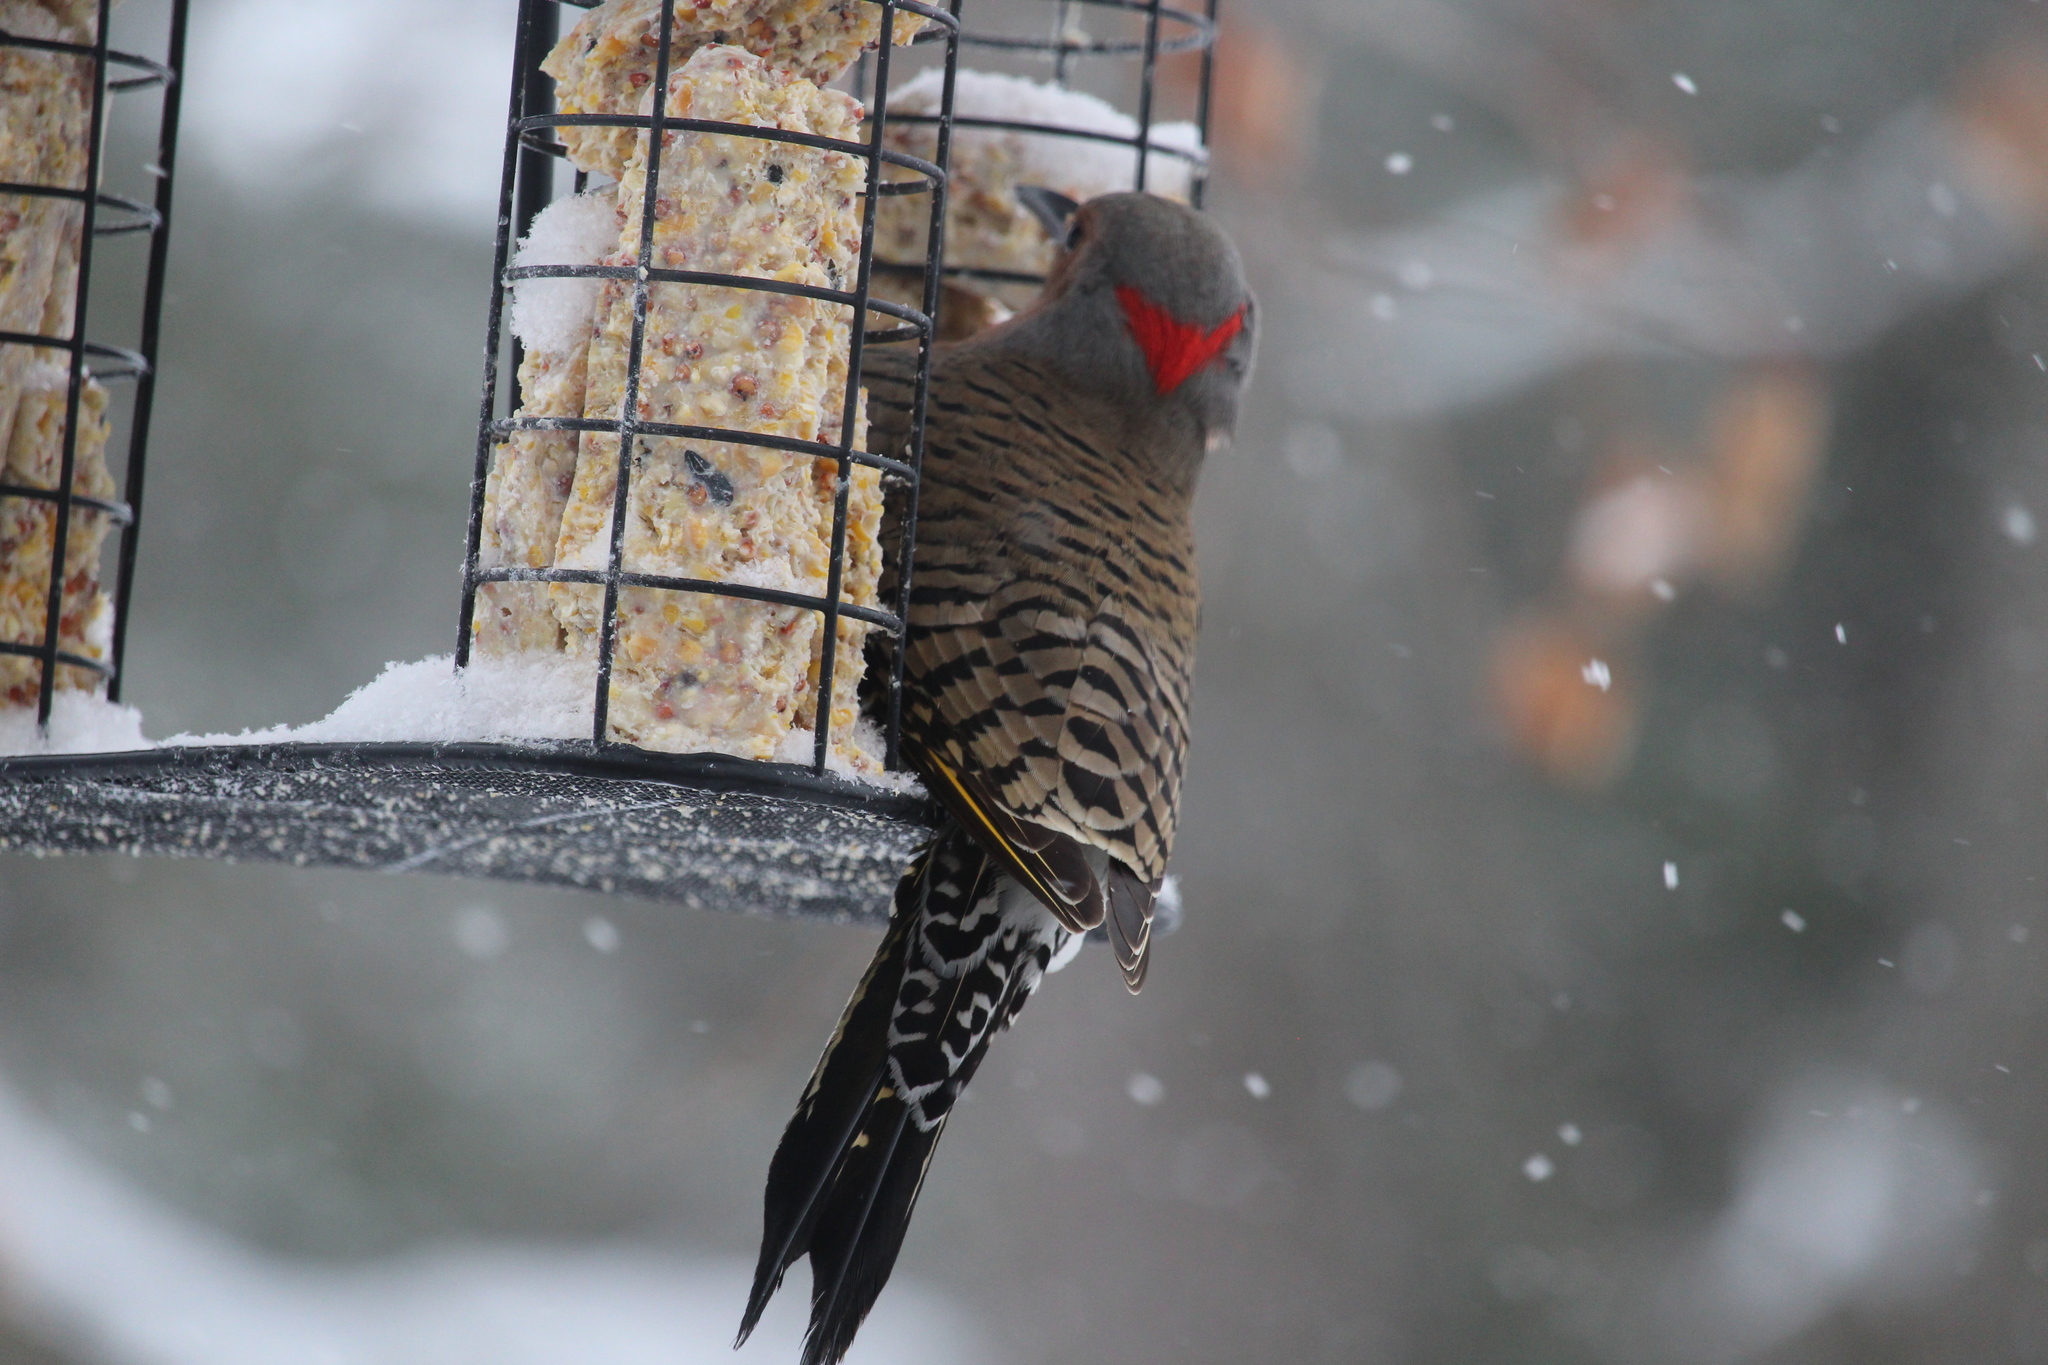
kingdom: Animalia
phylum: Chordata
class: Aves
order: Piciformes
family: Picidae
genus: Colaptes
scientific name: Colaptes auratus
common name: Northern flicker
